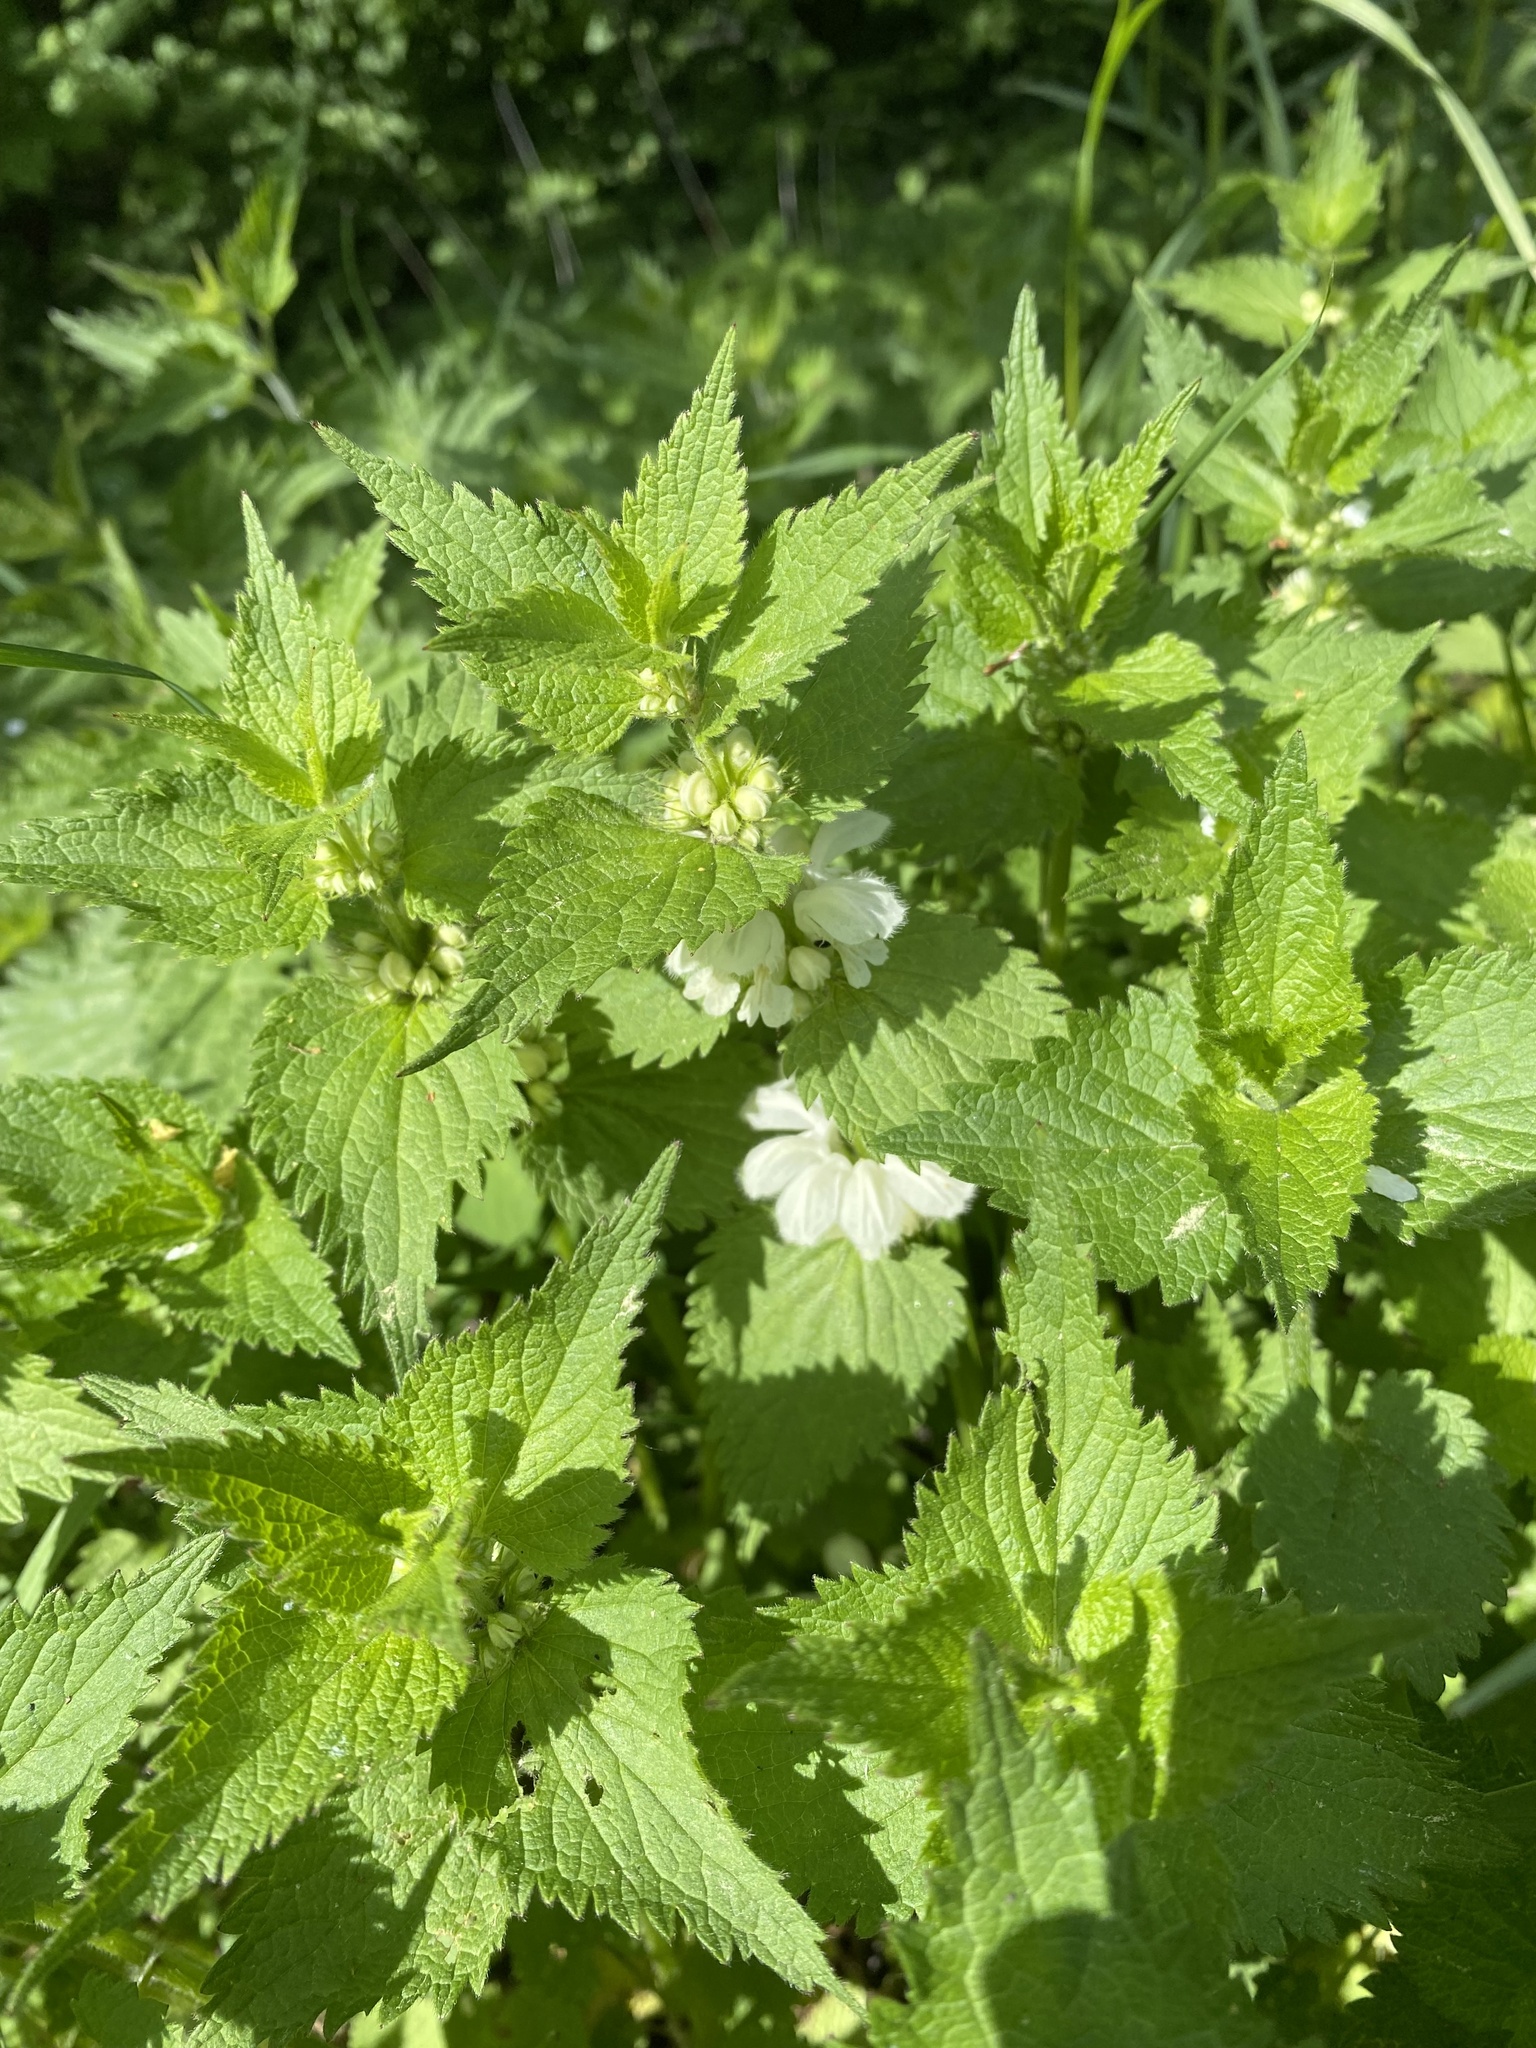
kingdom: Plantae
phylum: Tracheophyta
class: Magnoliopsida
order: Lamiales
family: Lamiaceae
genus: Lamium
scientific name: Lamium album
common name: White dead-nettle
